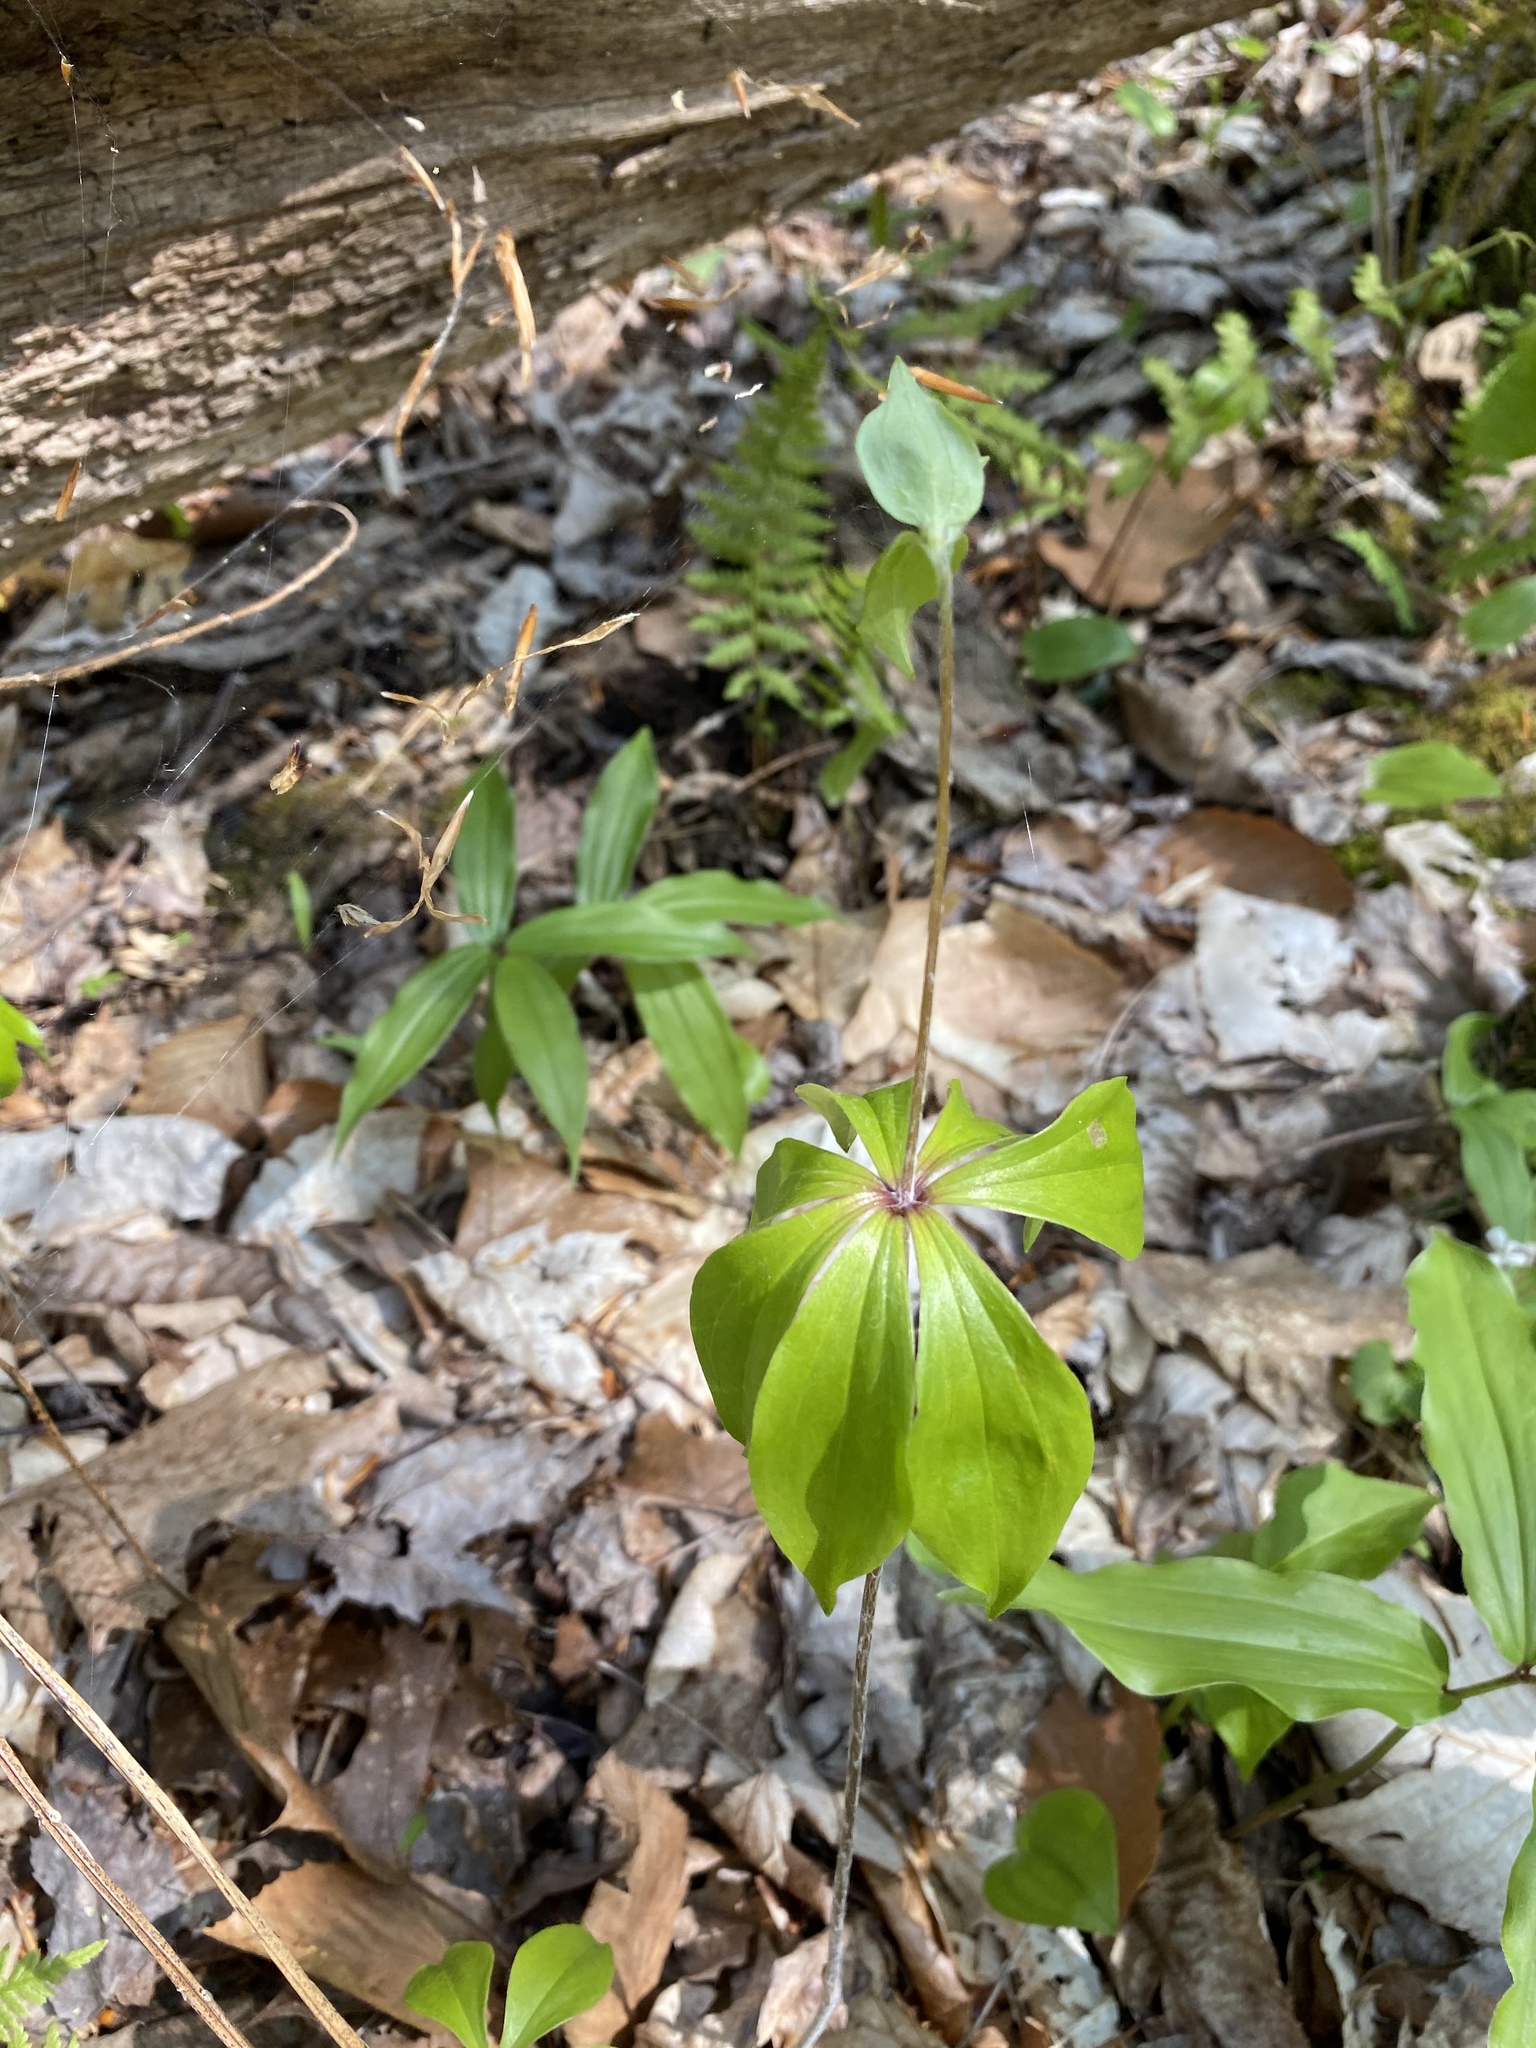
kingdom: Plantae
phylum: Tracheophyta
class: Liliopsida
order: Liliales
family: Liliaceae
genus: Medeola
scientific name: Medeola virginiana
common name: Indian cucumber-root
